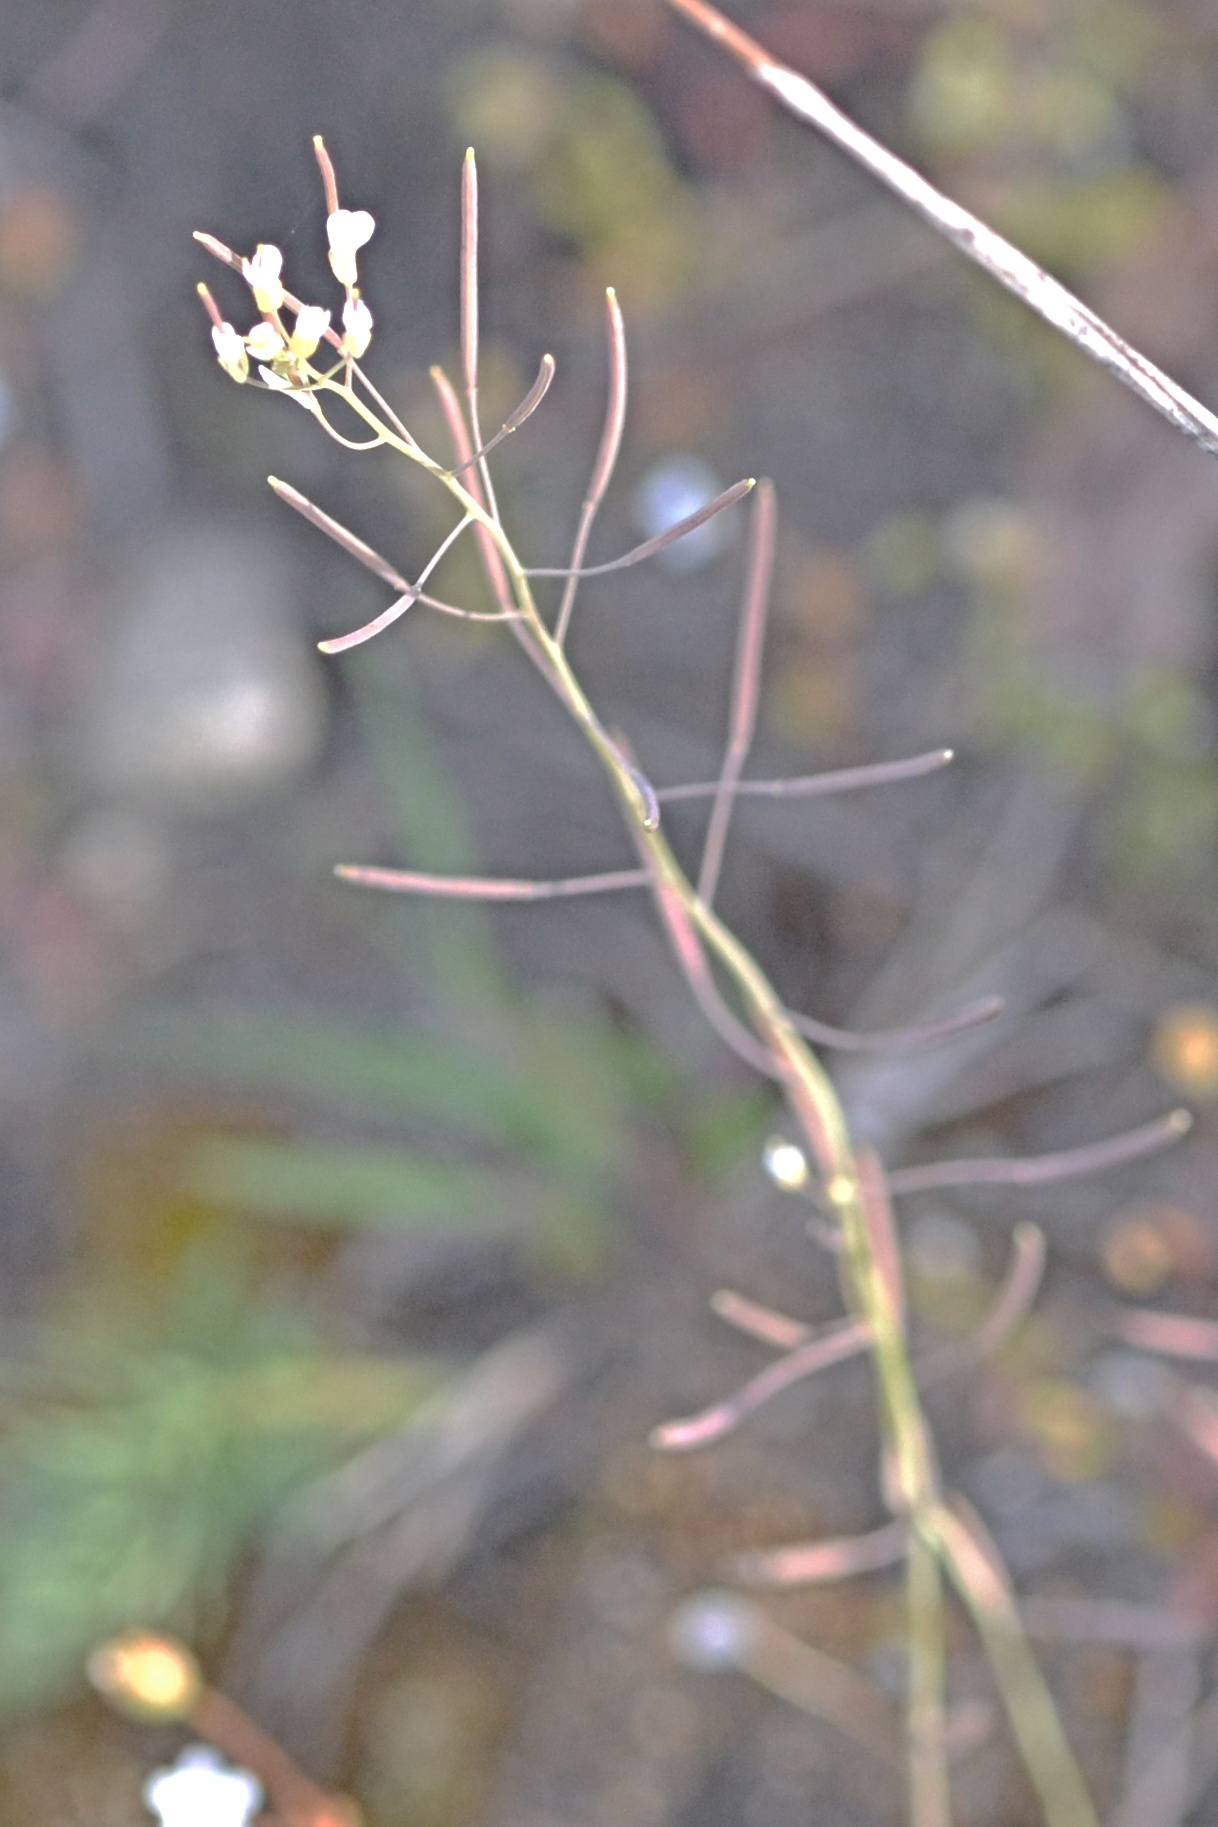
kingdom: Plantae
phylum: Tracheophyta
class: Magnoliopsida
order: Brassicales
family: Brassicaceae
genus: Arabidopsis
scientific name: Arabidopsis thaliana
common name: Thale cress
